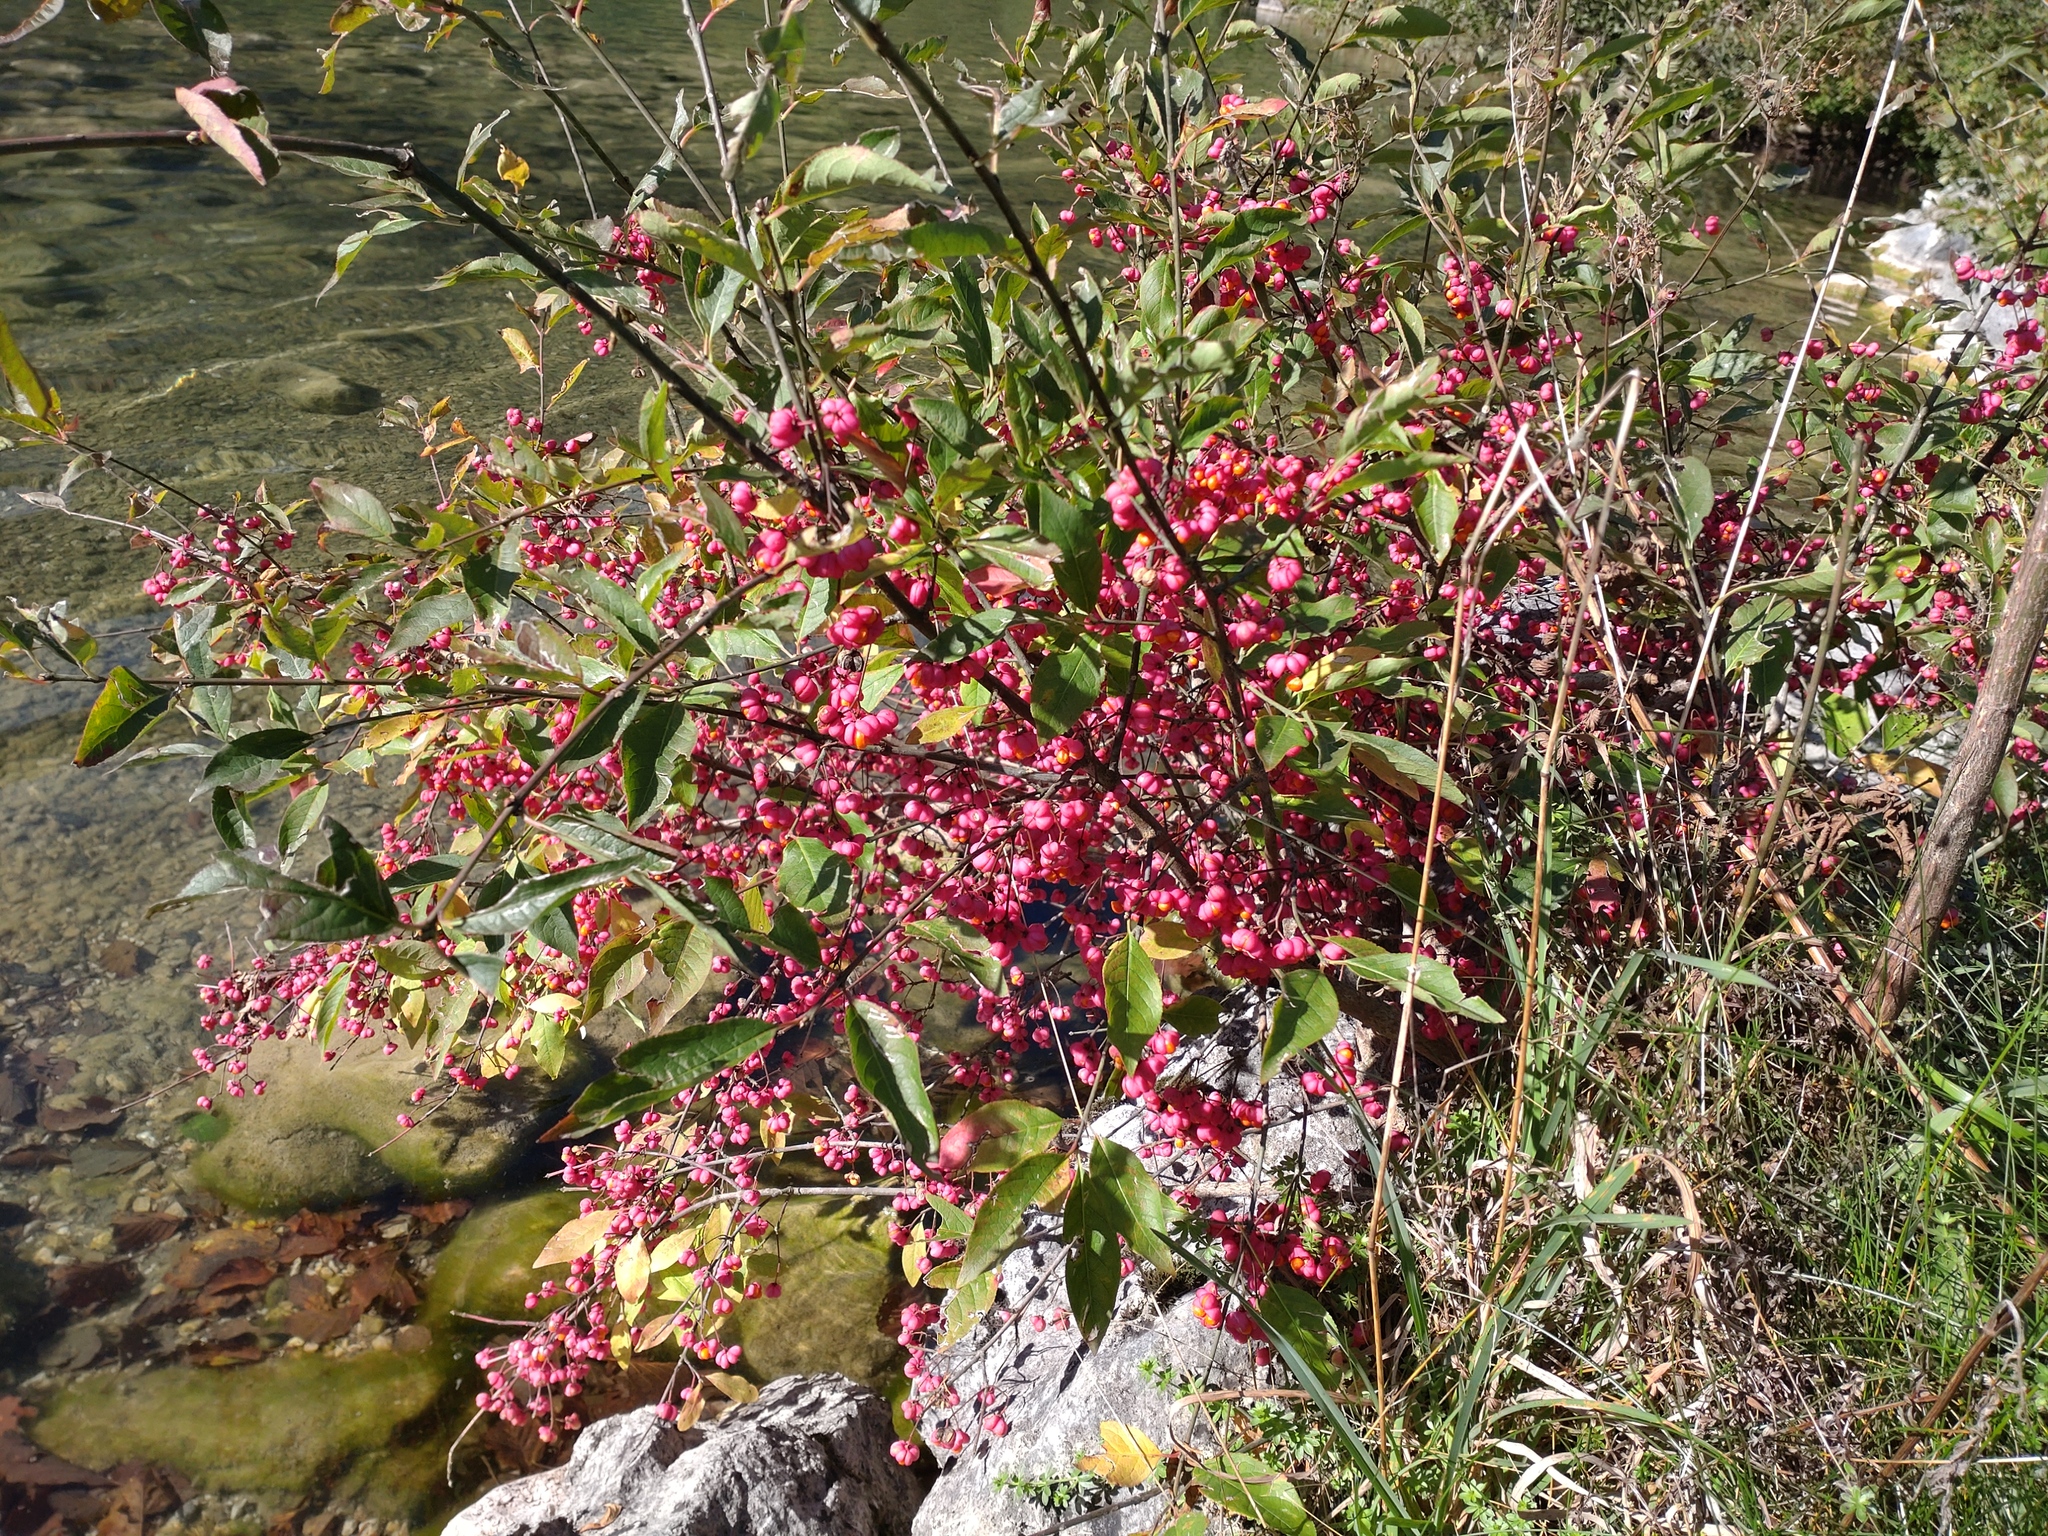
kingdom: Plantae
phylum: Tracheophyta
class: Magnoliopsida
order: Celastrales
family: Celastraceae
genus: Euonymus
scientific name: Euonymus europaeus
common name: Spindle
